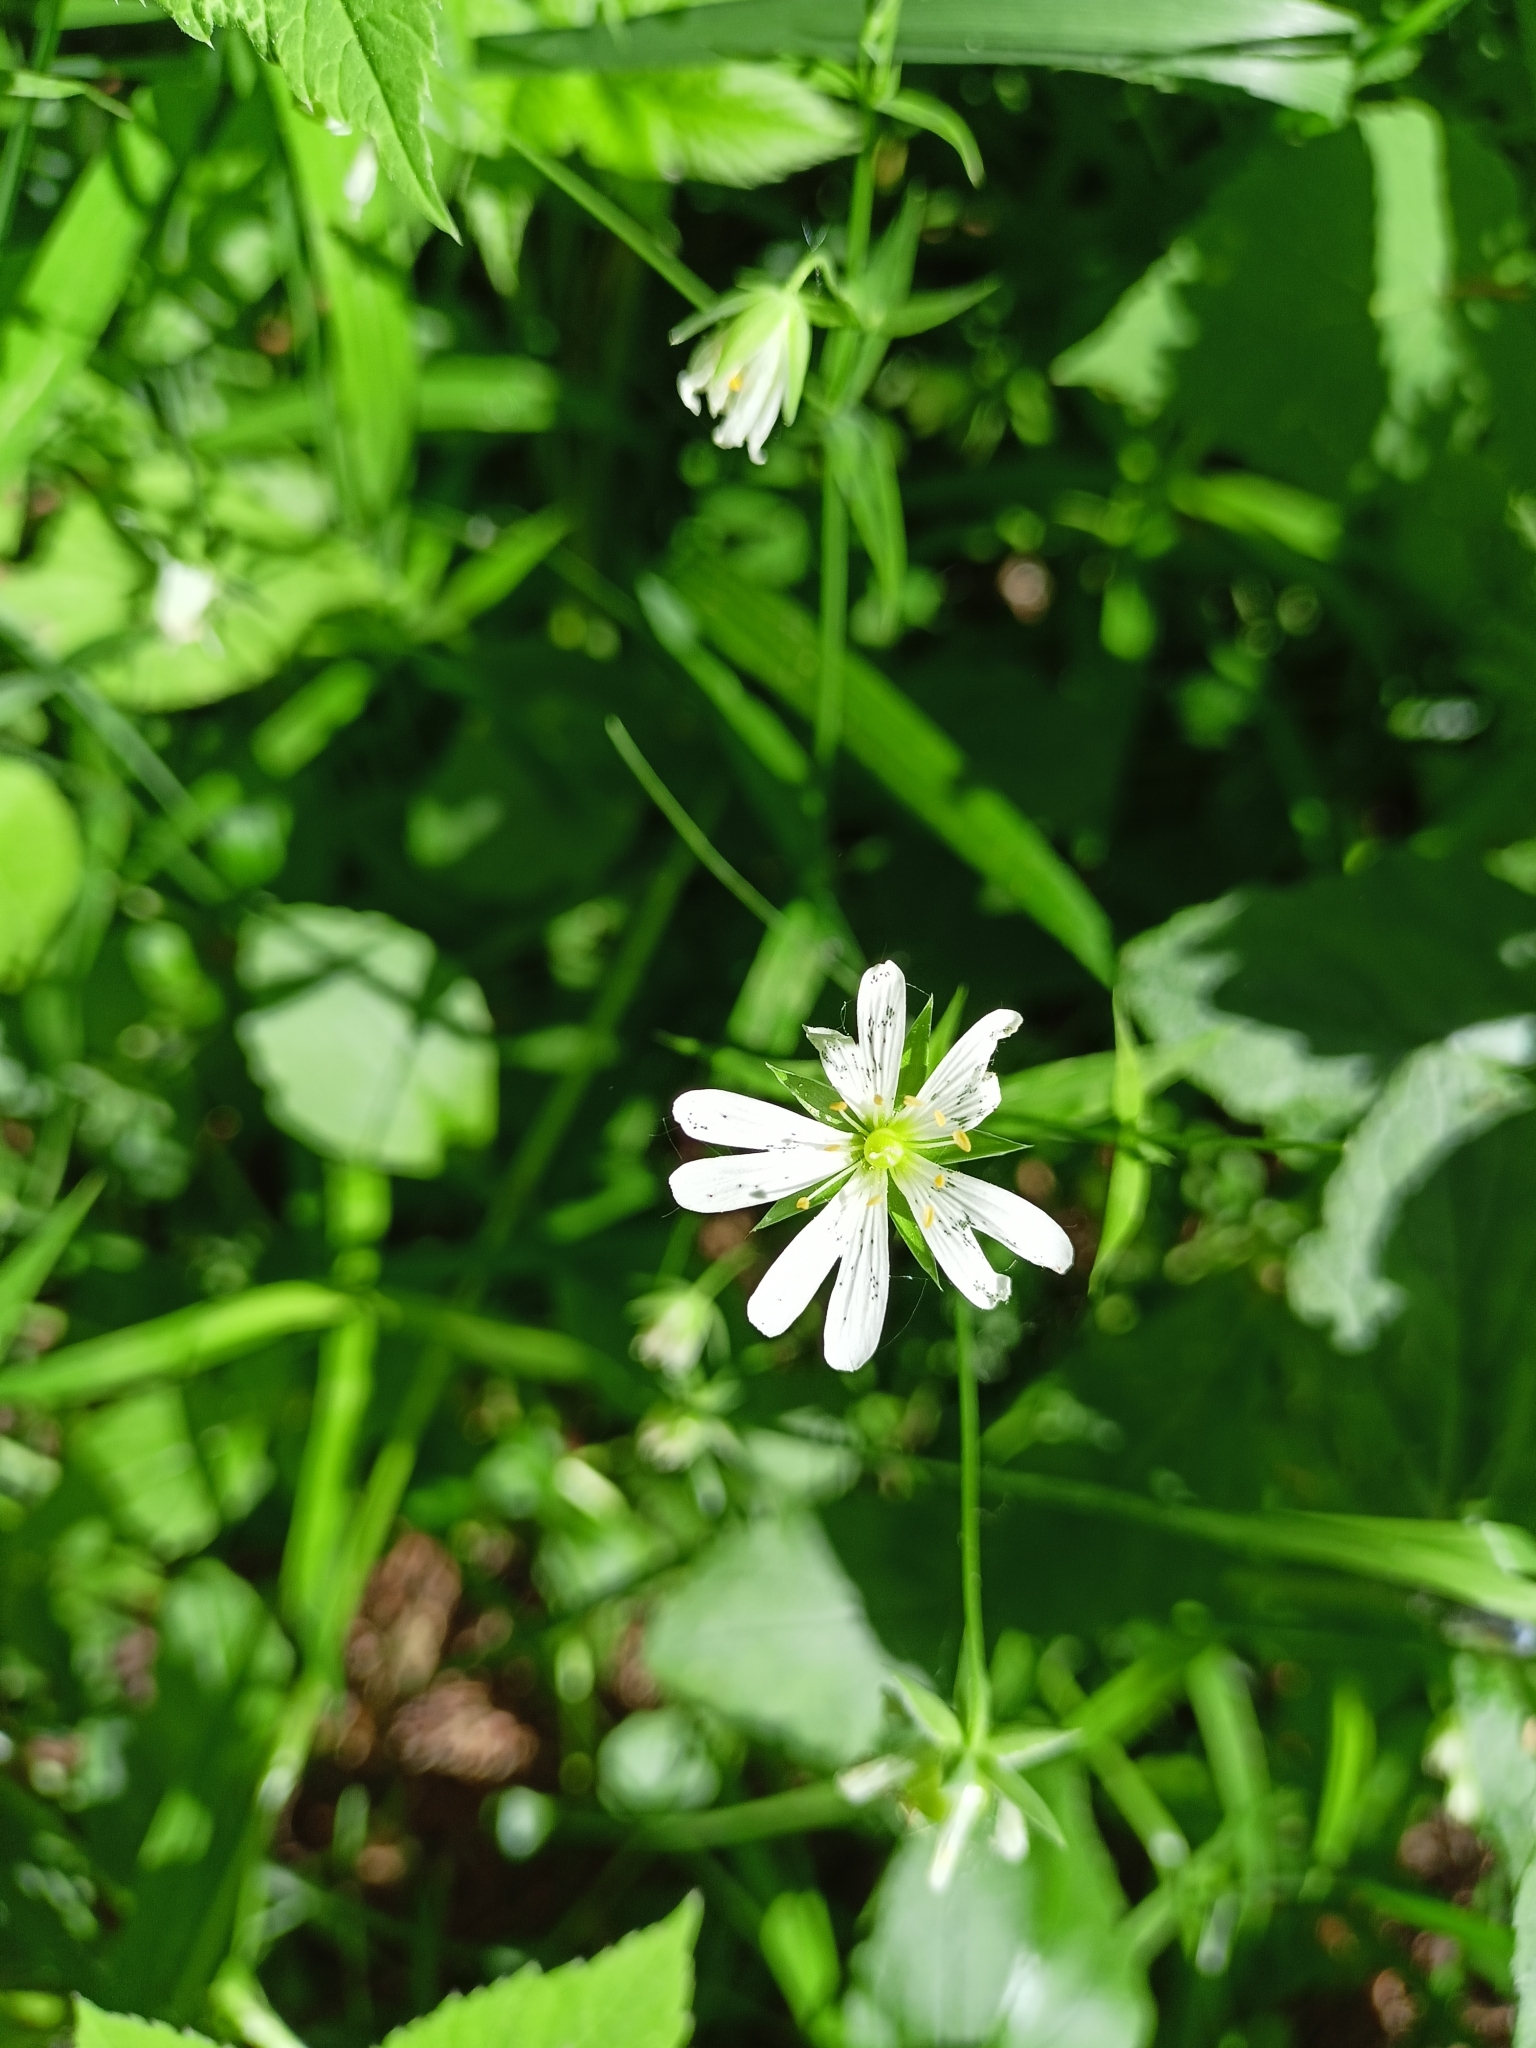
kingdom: Plantae
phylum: Tracheophyta
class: Magnoliopsida
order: Caryophyllales
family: Caryophyllaceae
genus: Rabelera
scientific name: Rabelera holostea
